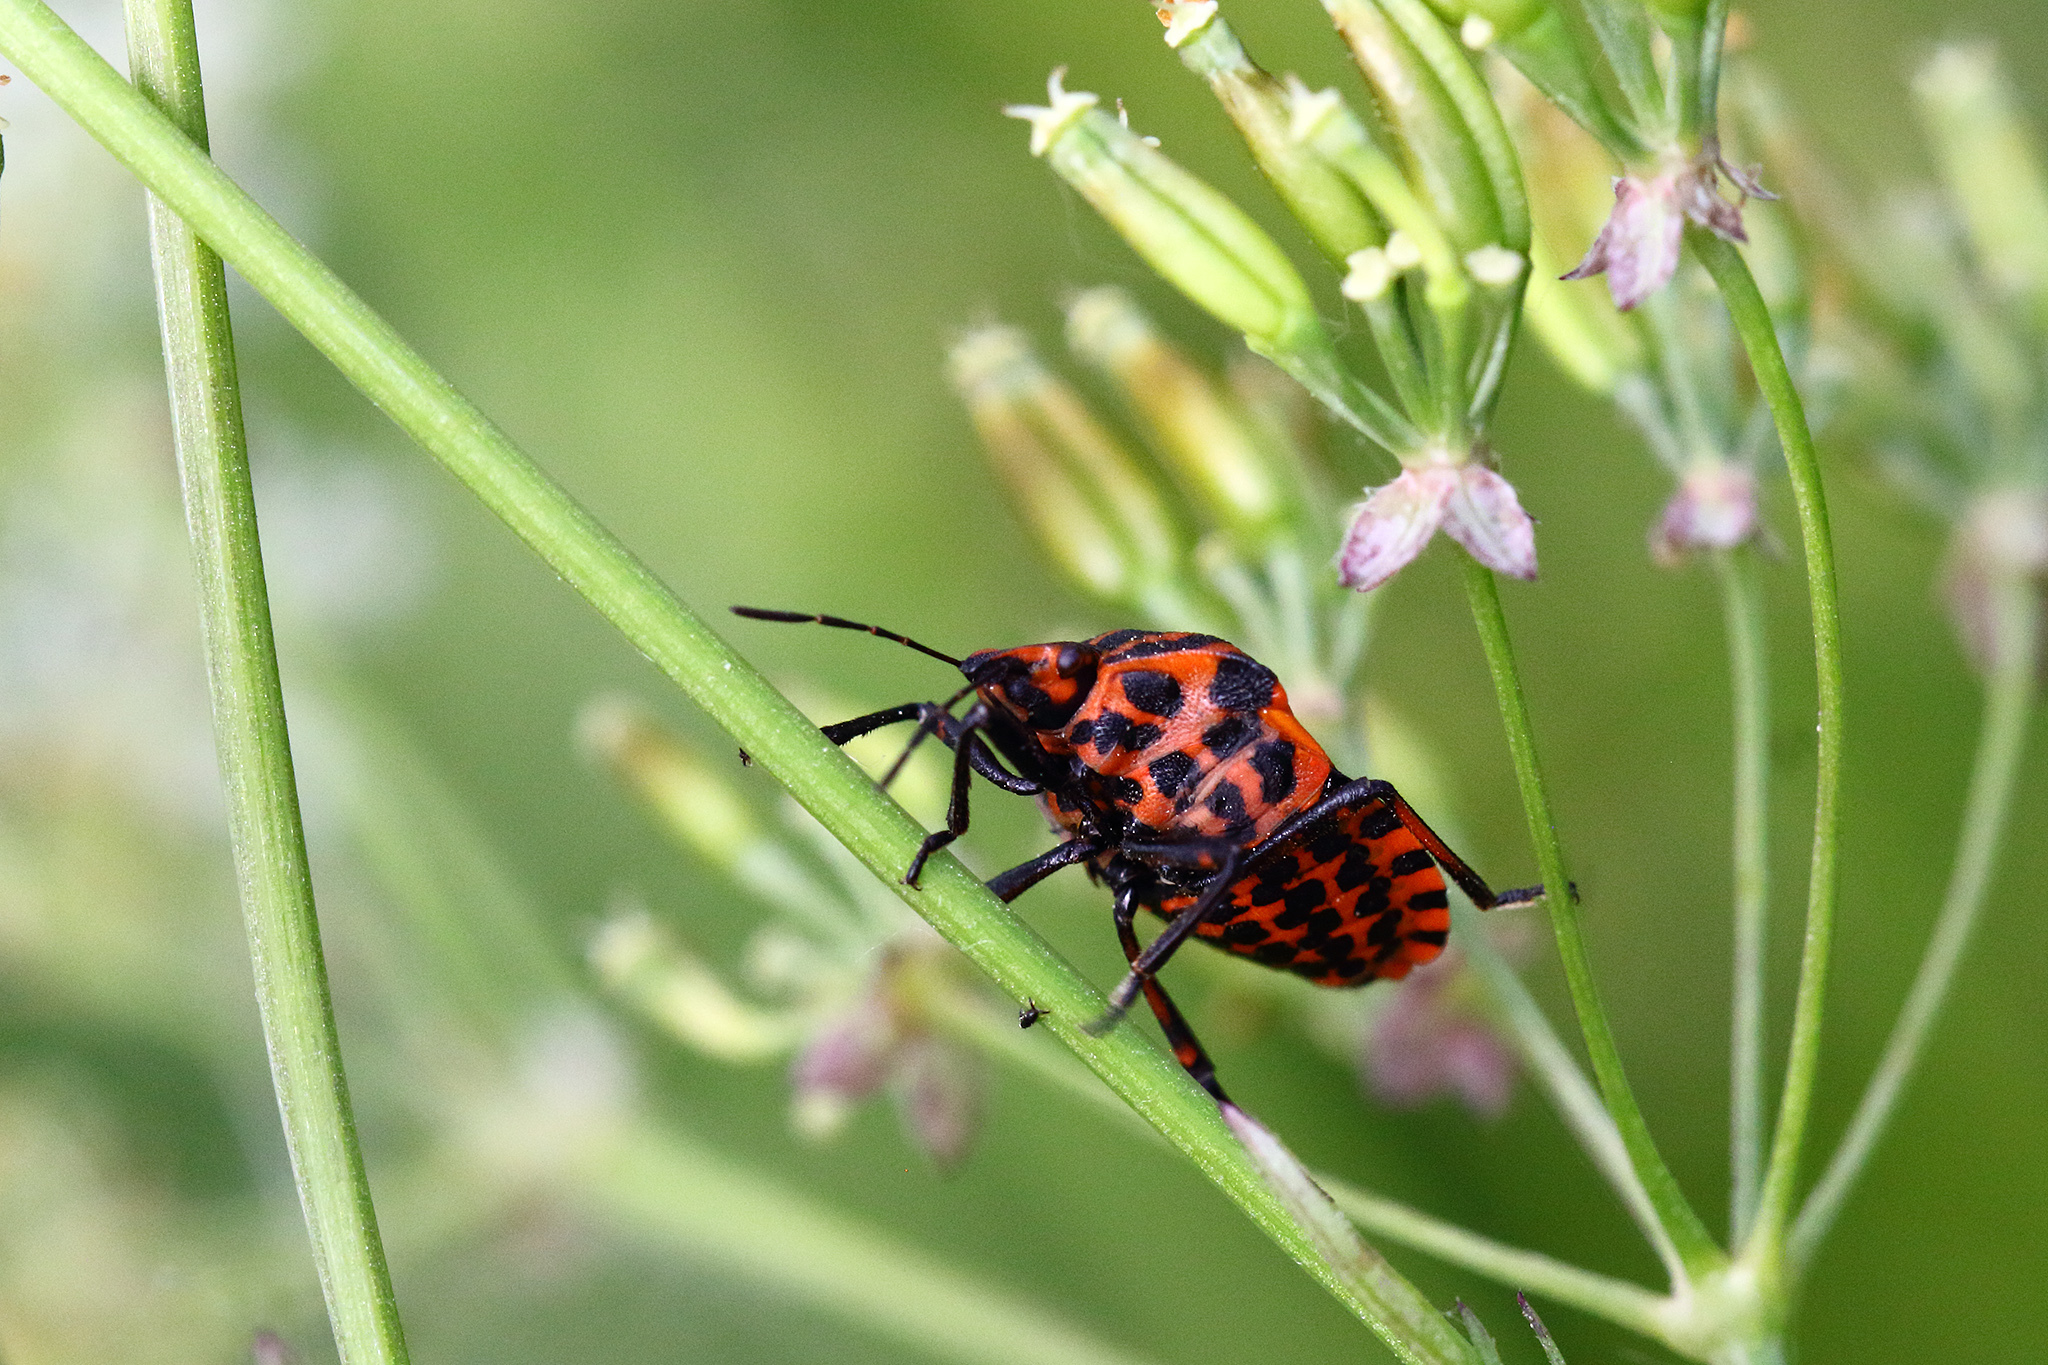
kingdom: Animalia
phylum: Arthropoda
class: Insecta
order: Hemiptera
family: Pentatomidae
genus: Graphosoma
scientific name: Graphosoma italicum
